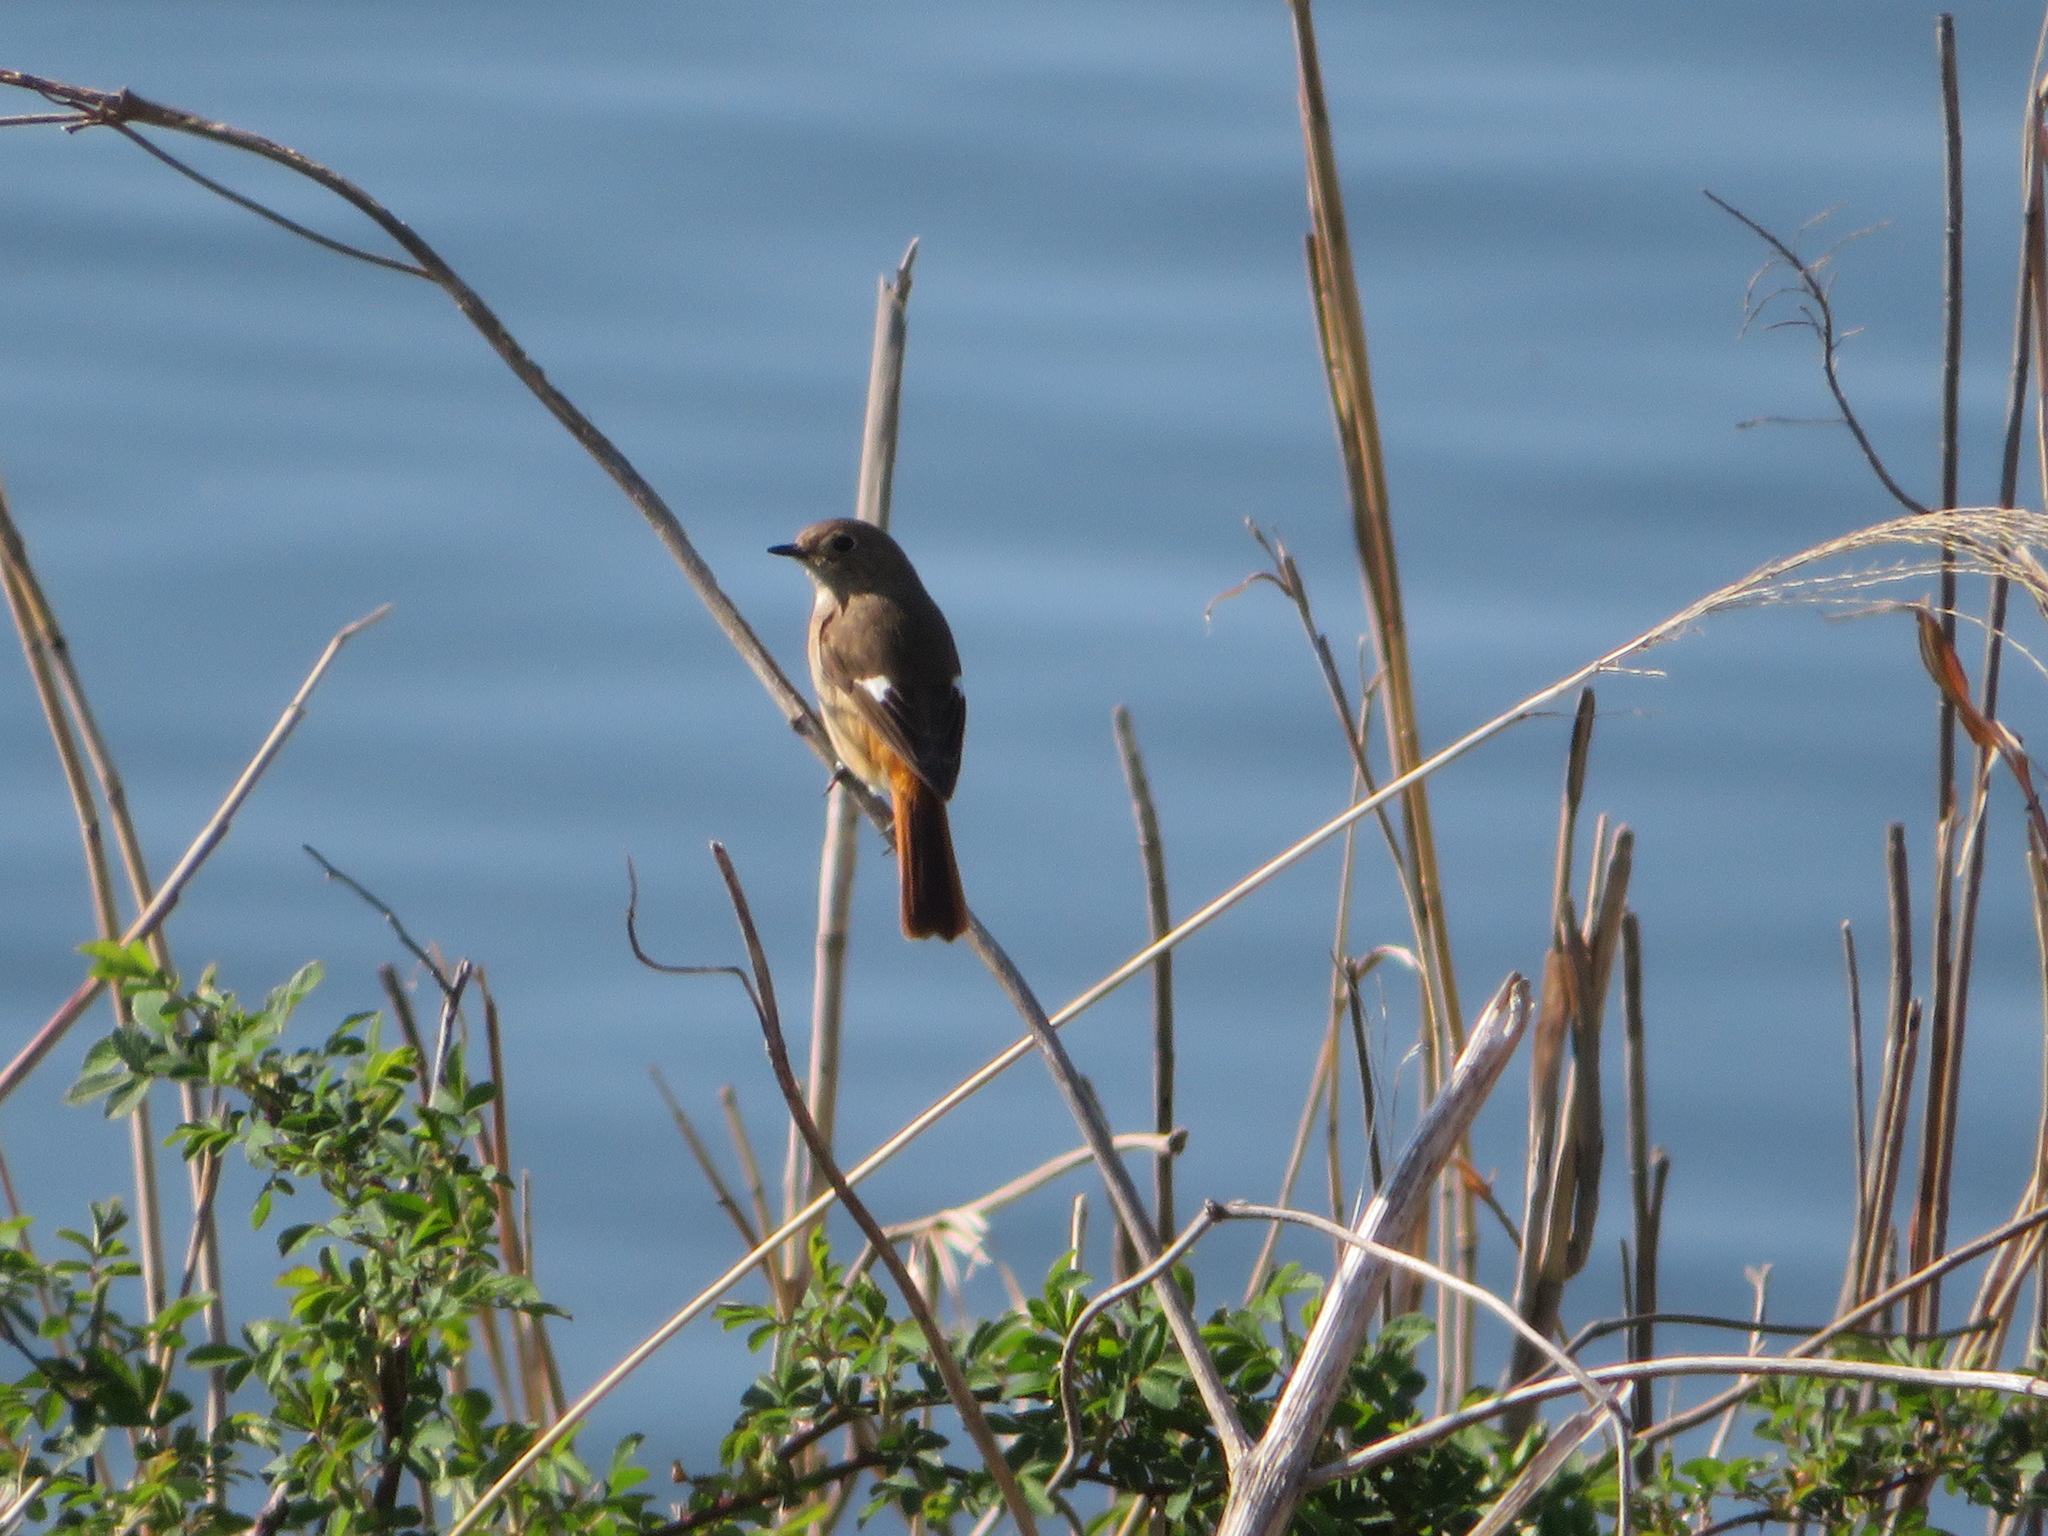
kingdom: Animalia
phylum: Chordata
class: Aves
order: Passeriformes
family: Muscicapidae
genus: Phoenicurus
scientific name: Phoenicurus auroreus
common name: Daurian redstart
